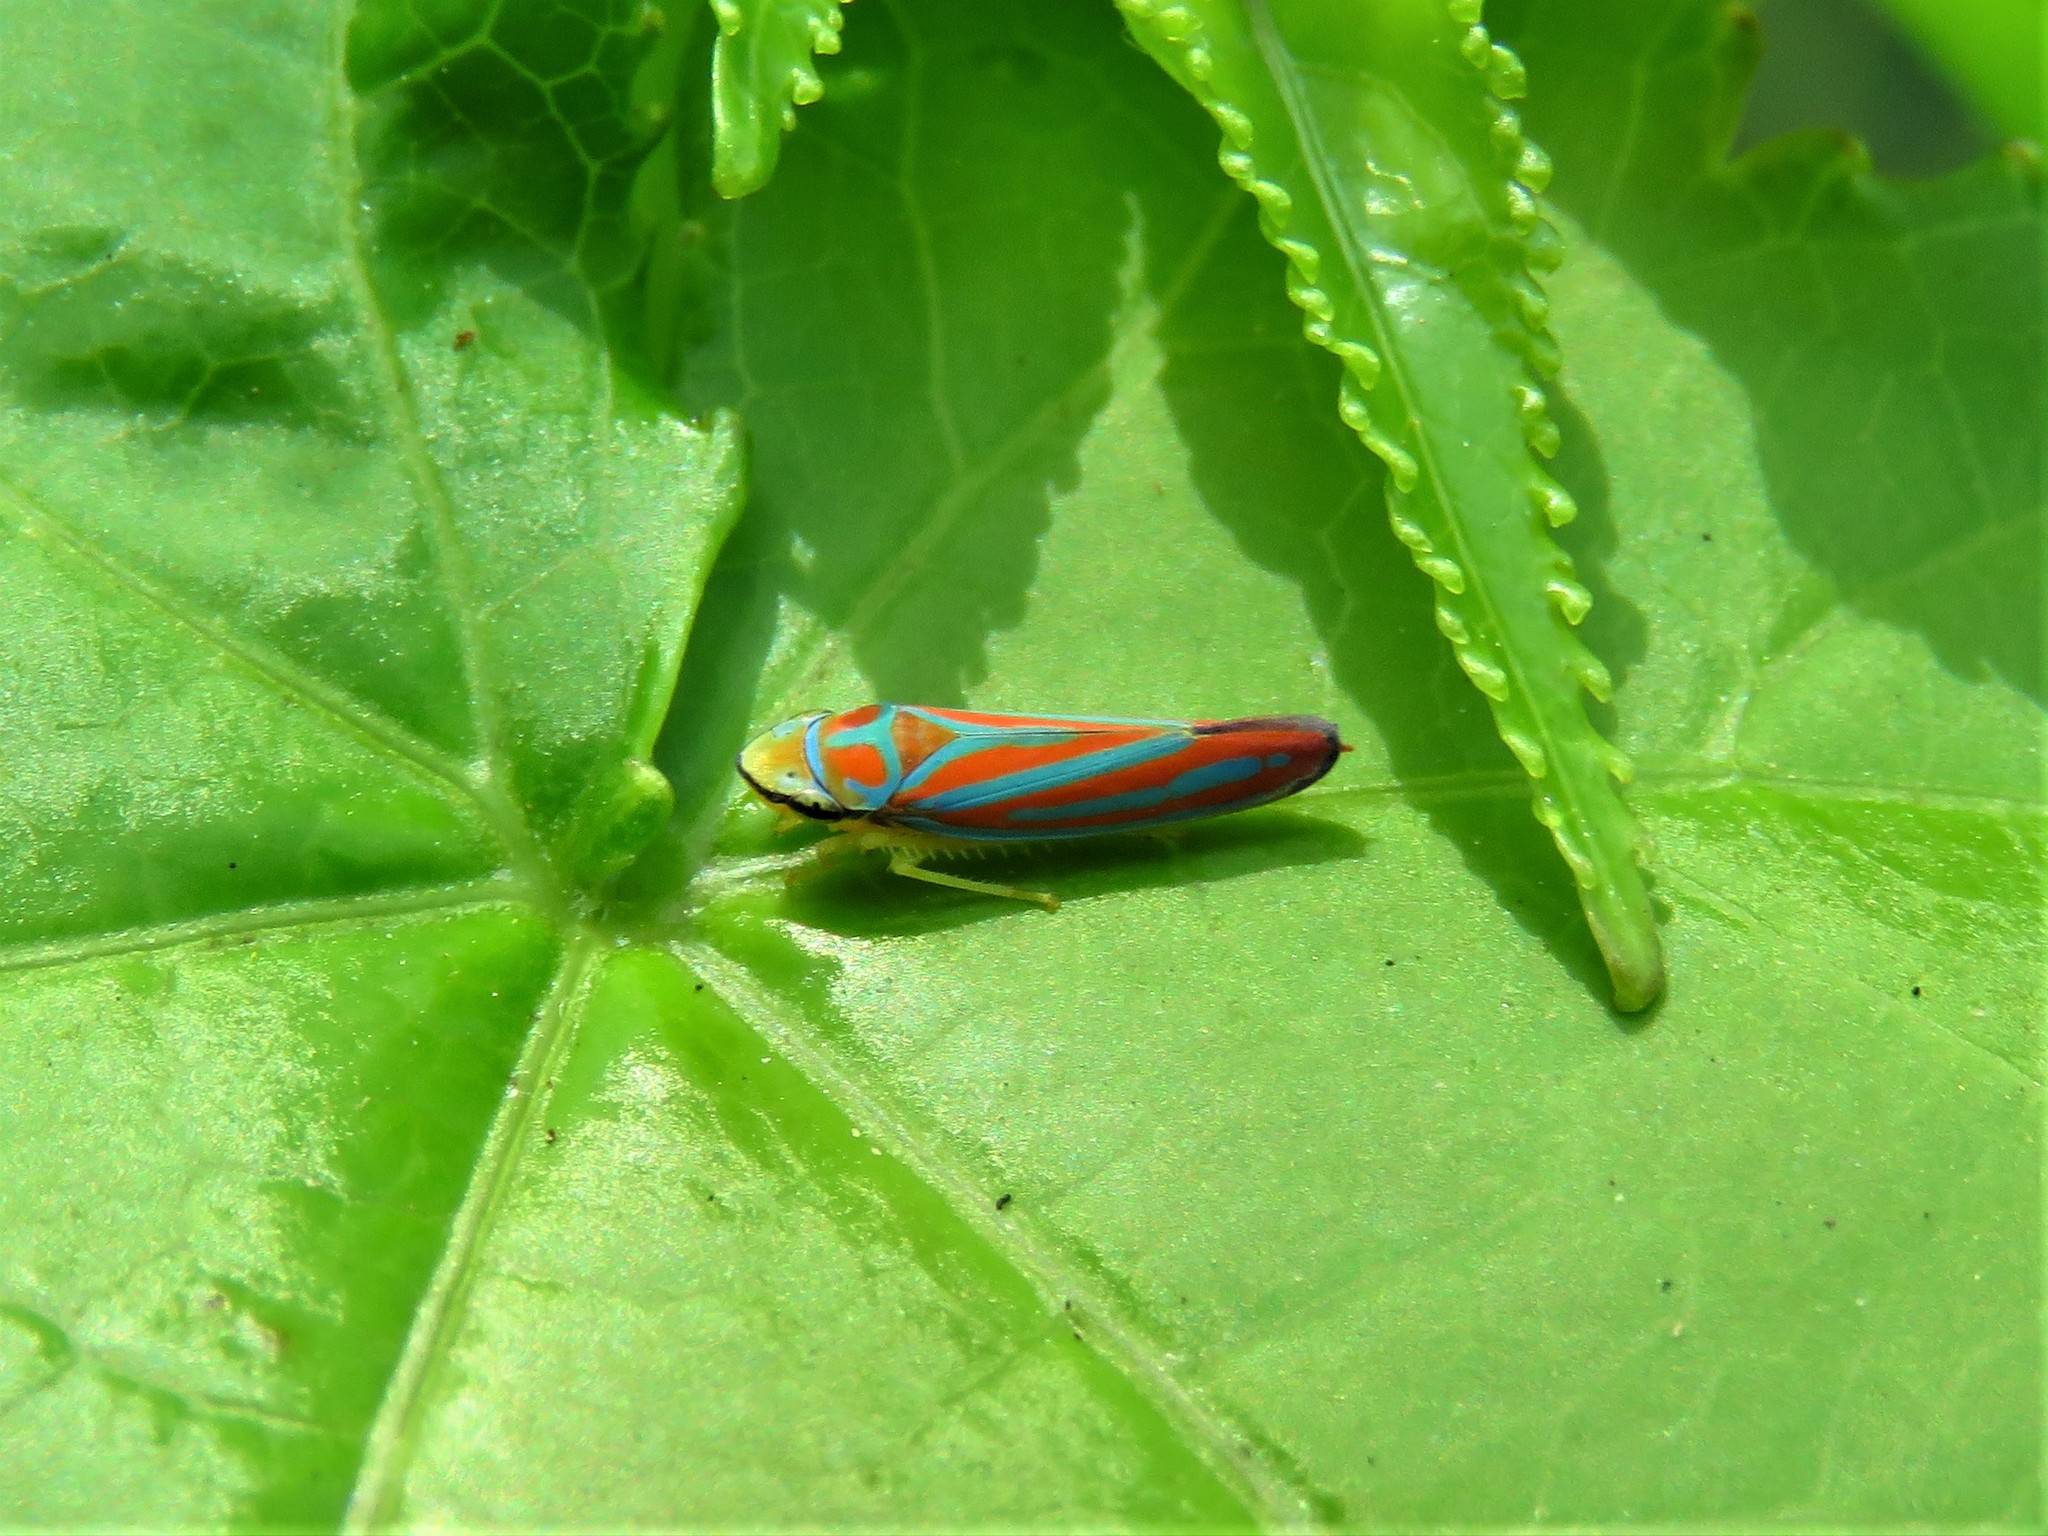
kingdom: Animalia
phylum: Arthropoda
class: Insecta
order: Hemiptera
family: Cicadellidae
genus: Graphocephala
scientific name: Graphocephala coccinea
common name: Candy-striped leafhopper
